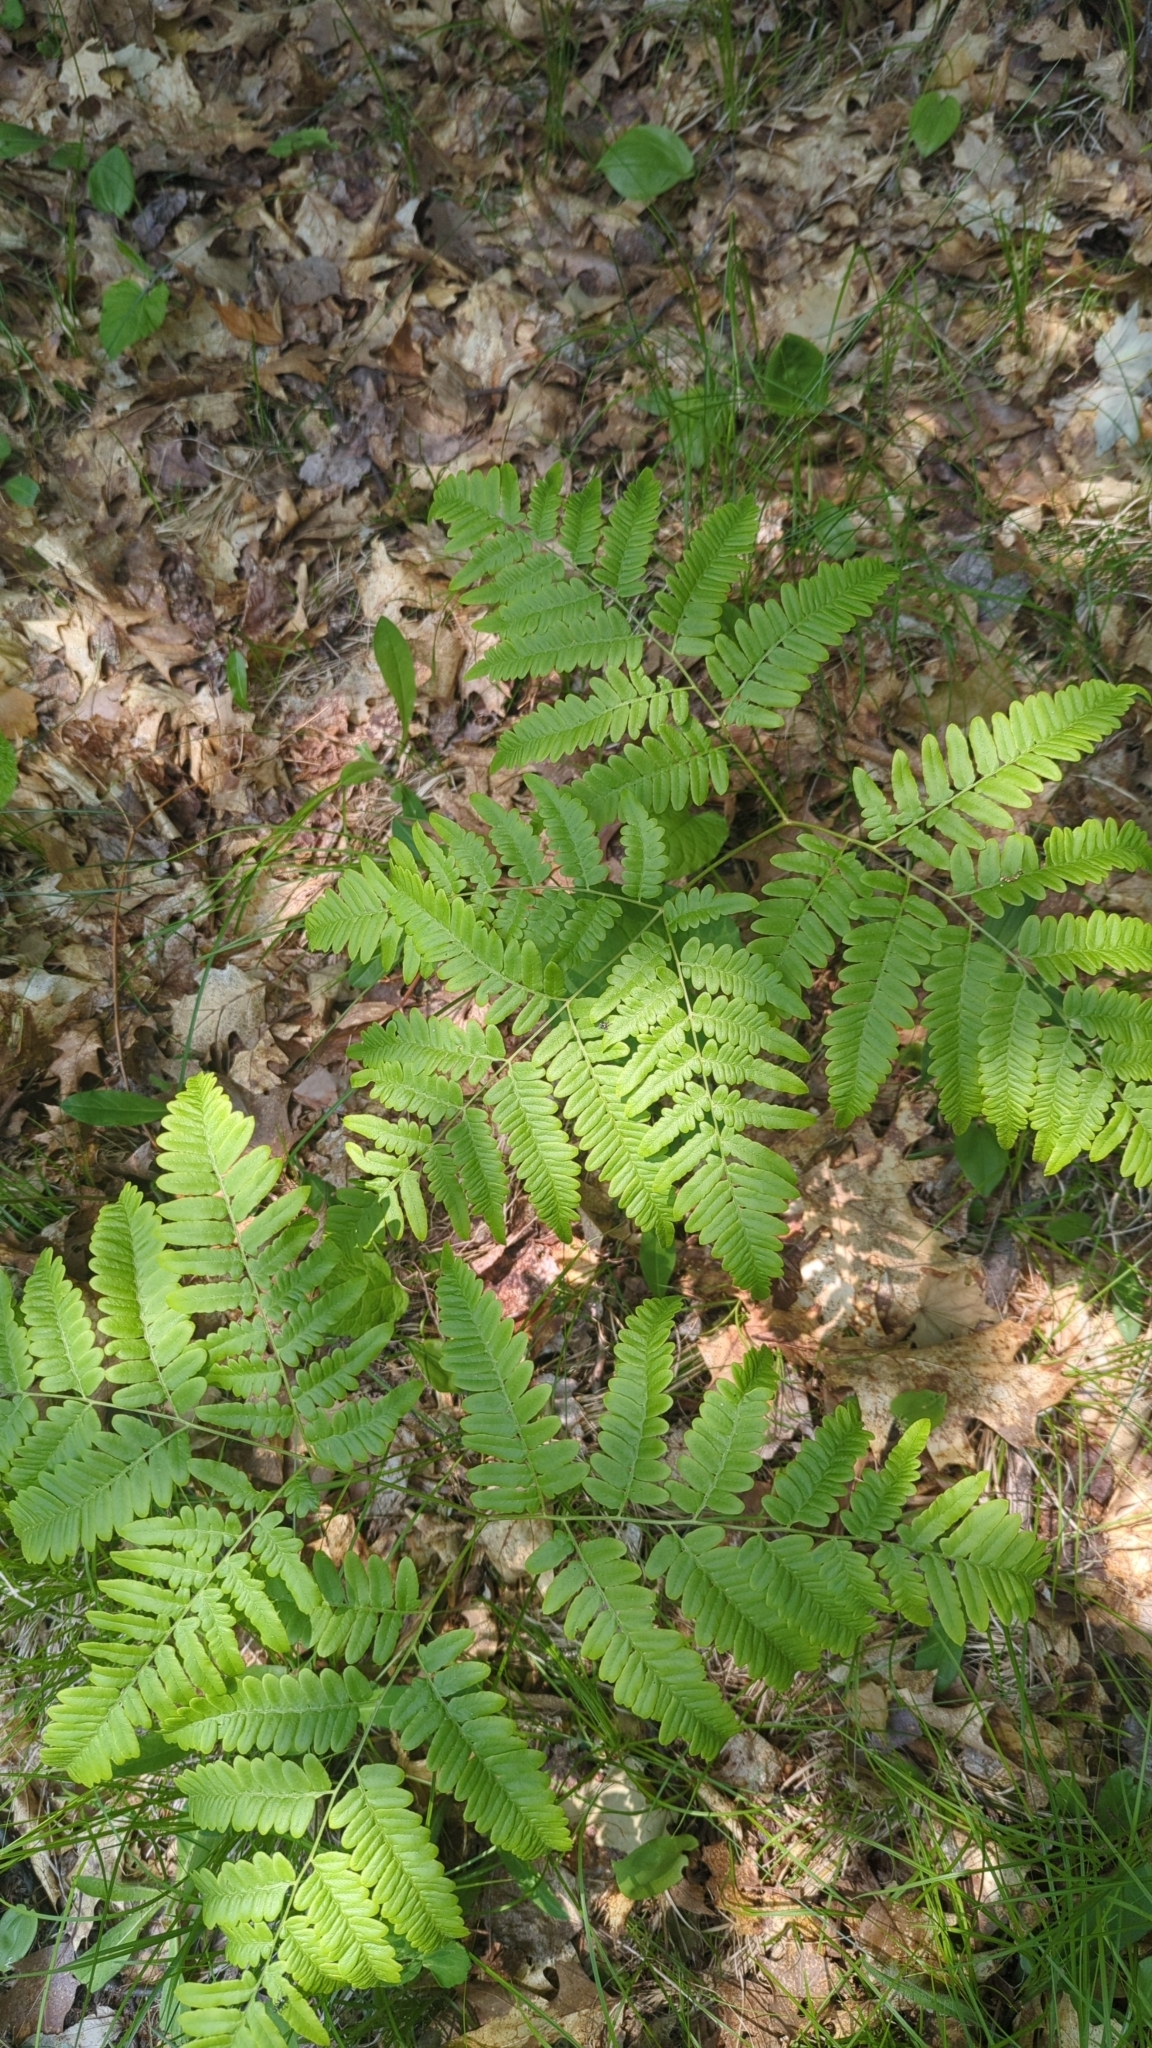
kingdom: Plantae
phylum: Tracheophyta
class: Polypodiopsida
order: Polypodiales
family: Dennstaedtiaceae
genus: Pteridium
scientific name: Pteridium aquilinum
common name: Bracken
